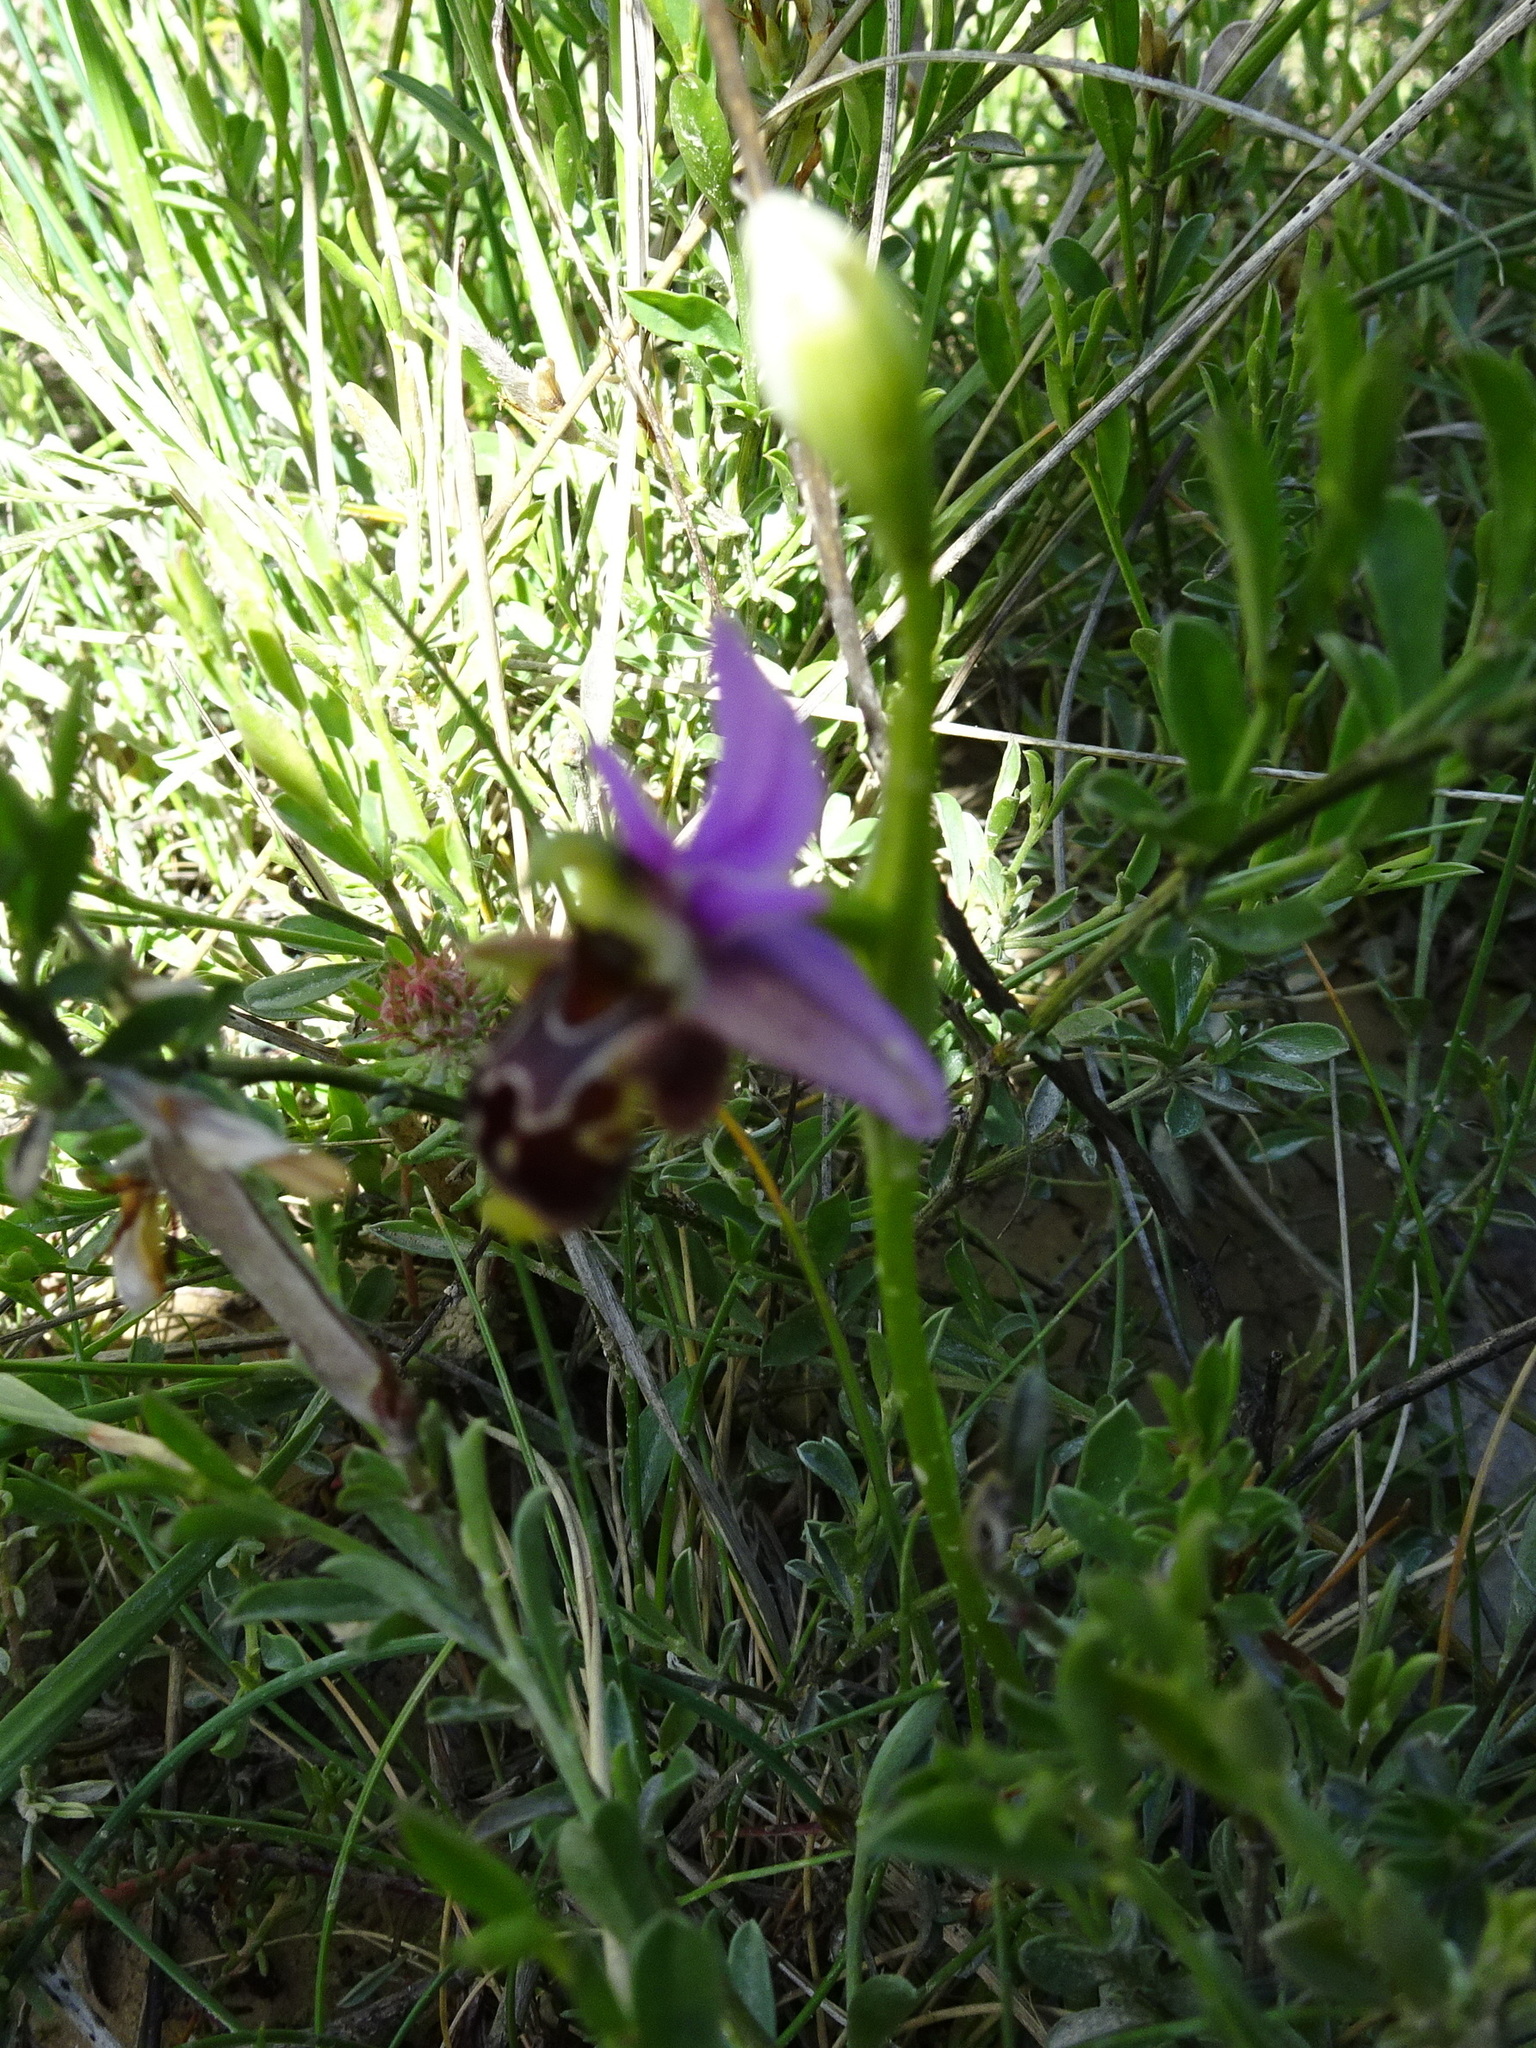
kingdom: Plantae
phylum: Tracheophyta
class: Liliopsida
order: Asparagales
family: Orchidaceae
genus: Ophrys
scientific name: Ophrys scolopax
